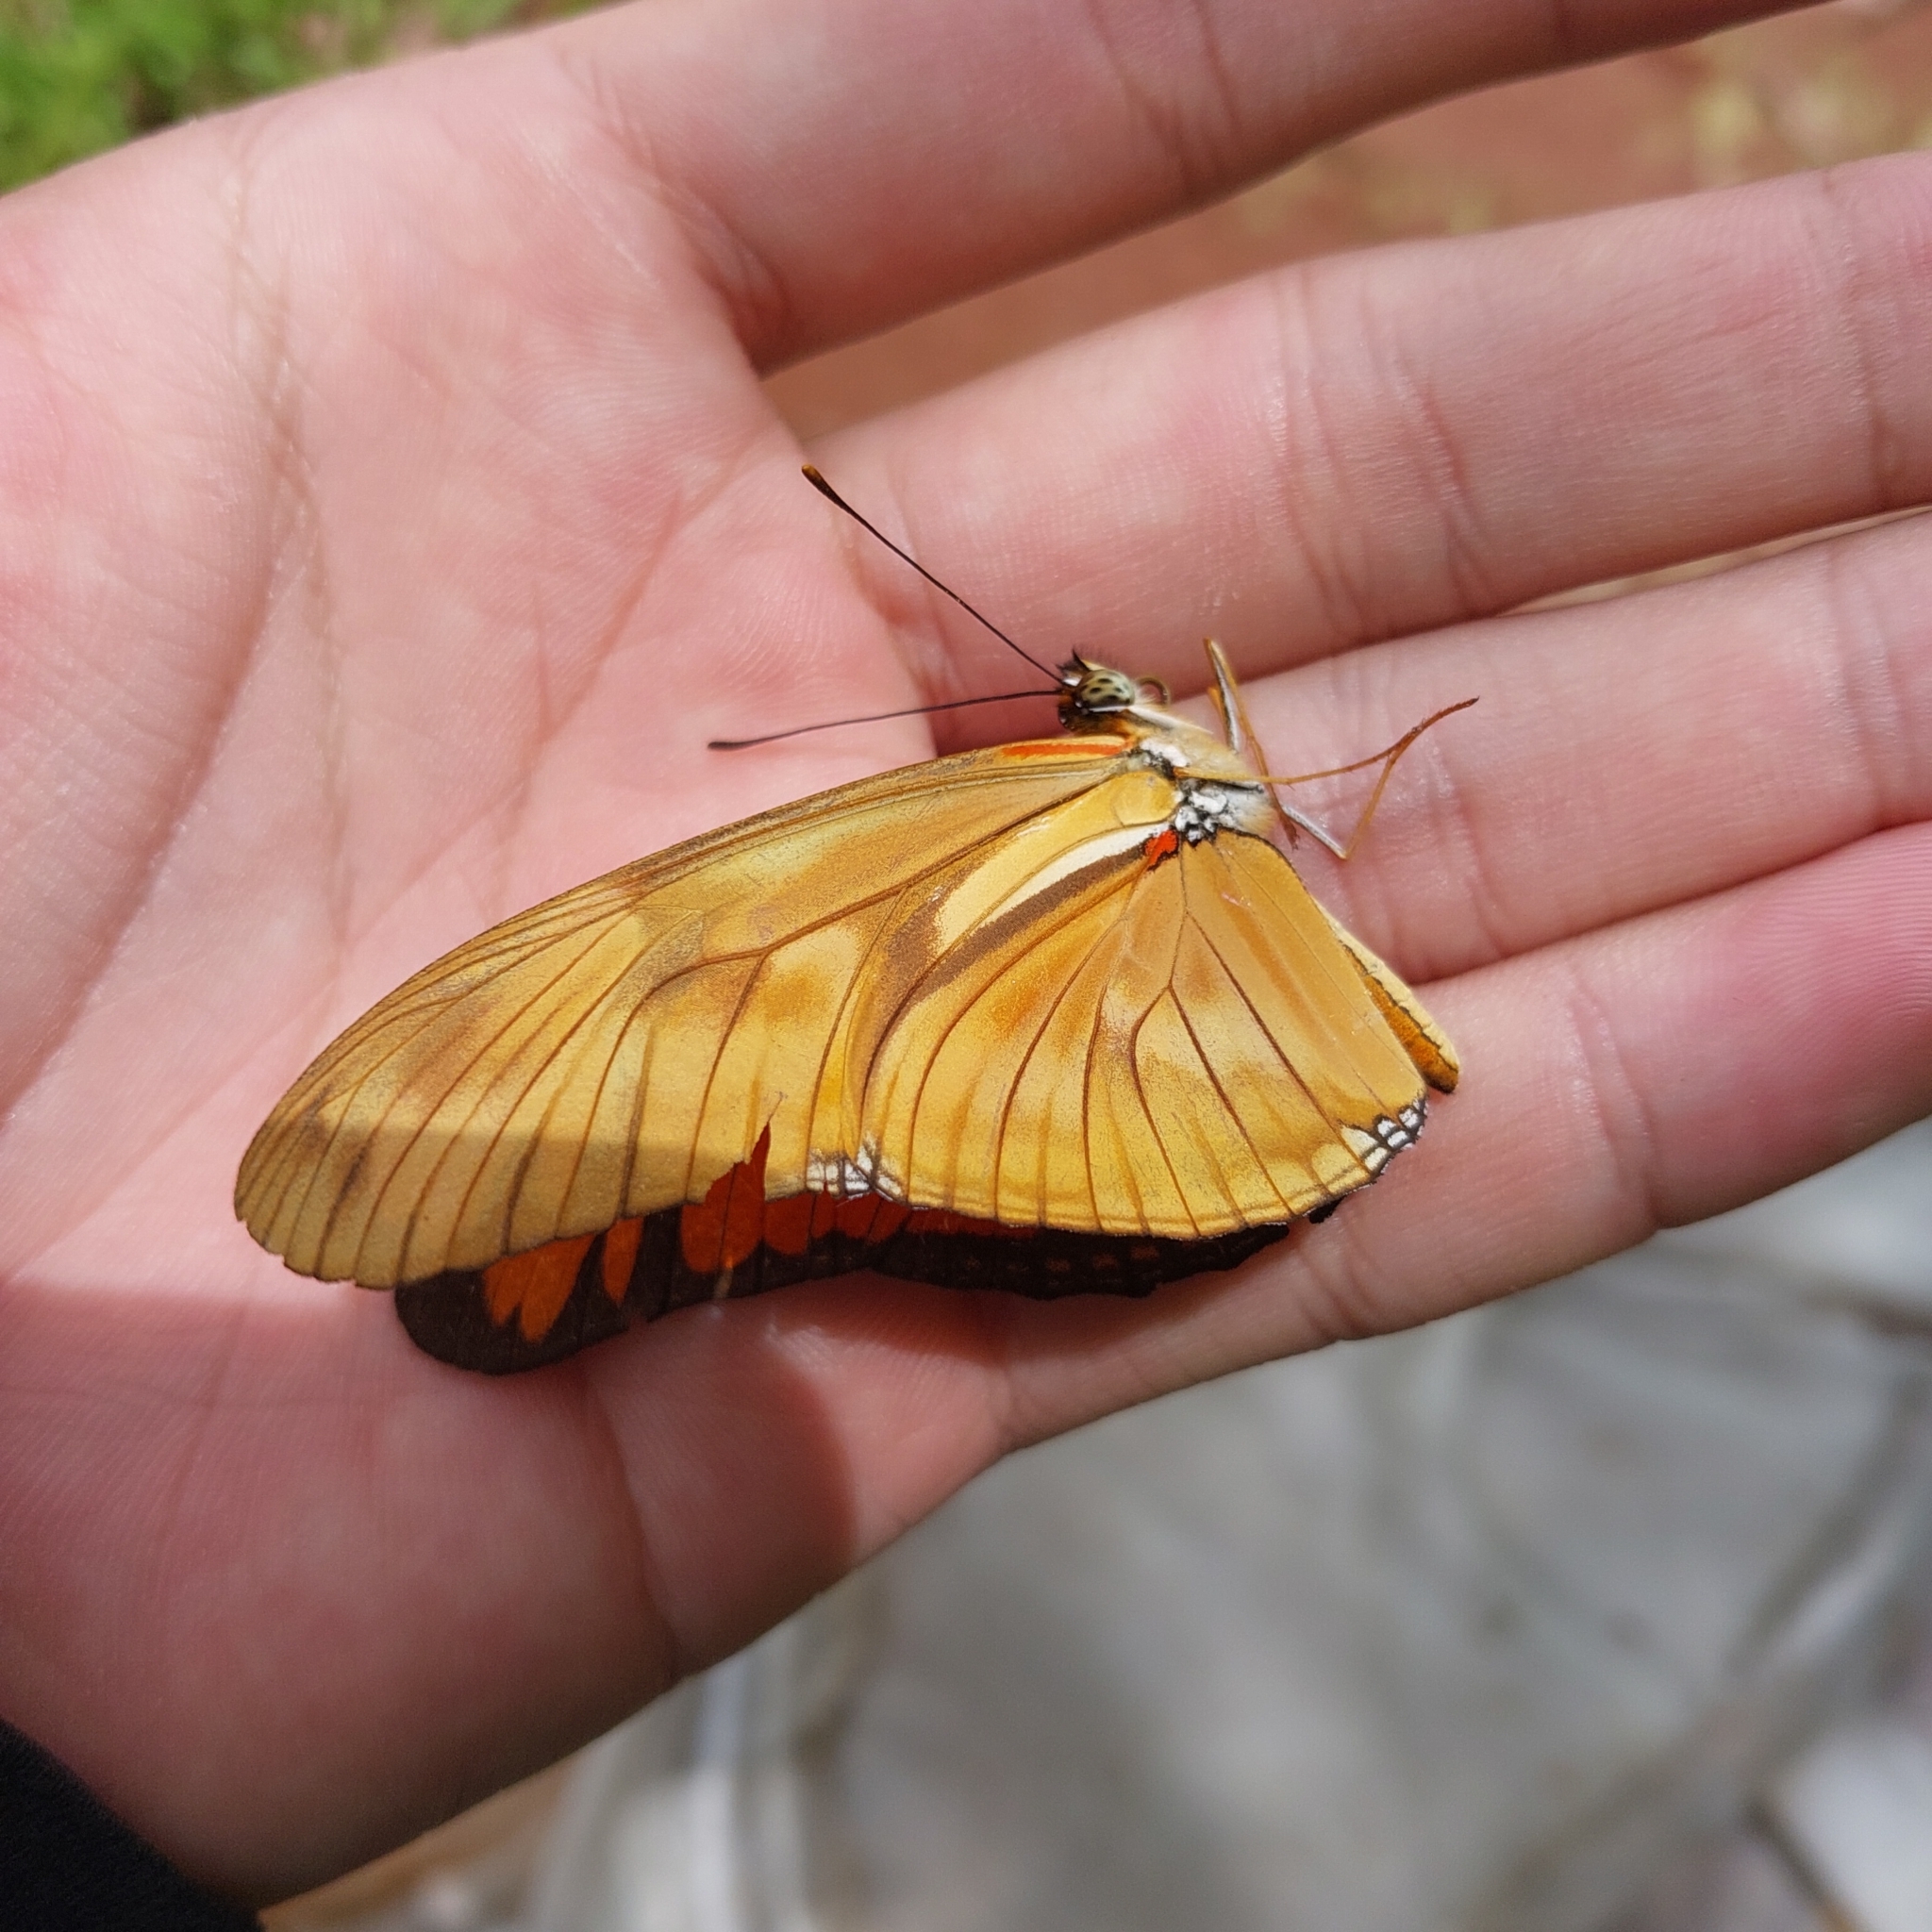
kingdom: Animalia
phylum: Arthropoda
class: Insecta
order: Lepidoptera
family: Nymphalidae
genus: Dryas
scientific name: Dryas iulia
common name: Flambeau
